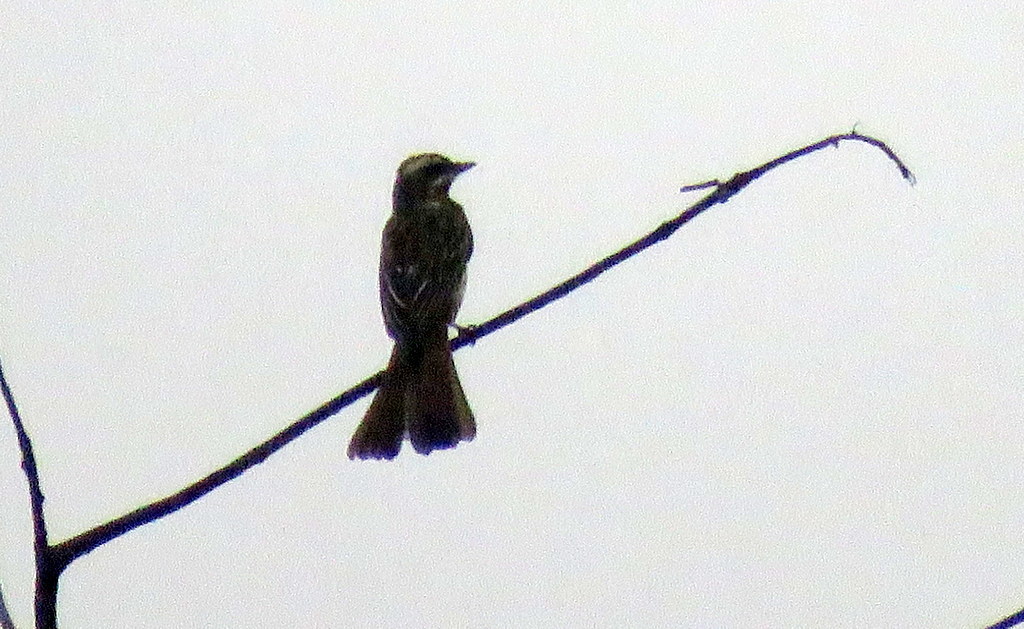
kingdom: Animalia
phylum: Chordata
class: Aves
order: Passeriformes
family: Tyrannidae
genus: Empidonomus
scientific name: Empidonomus varius
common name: Variegated flycatcher
